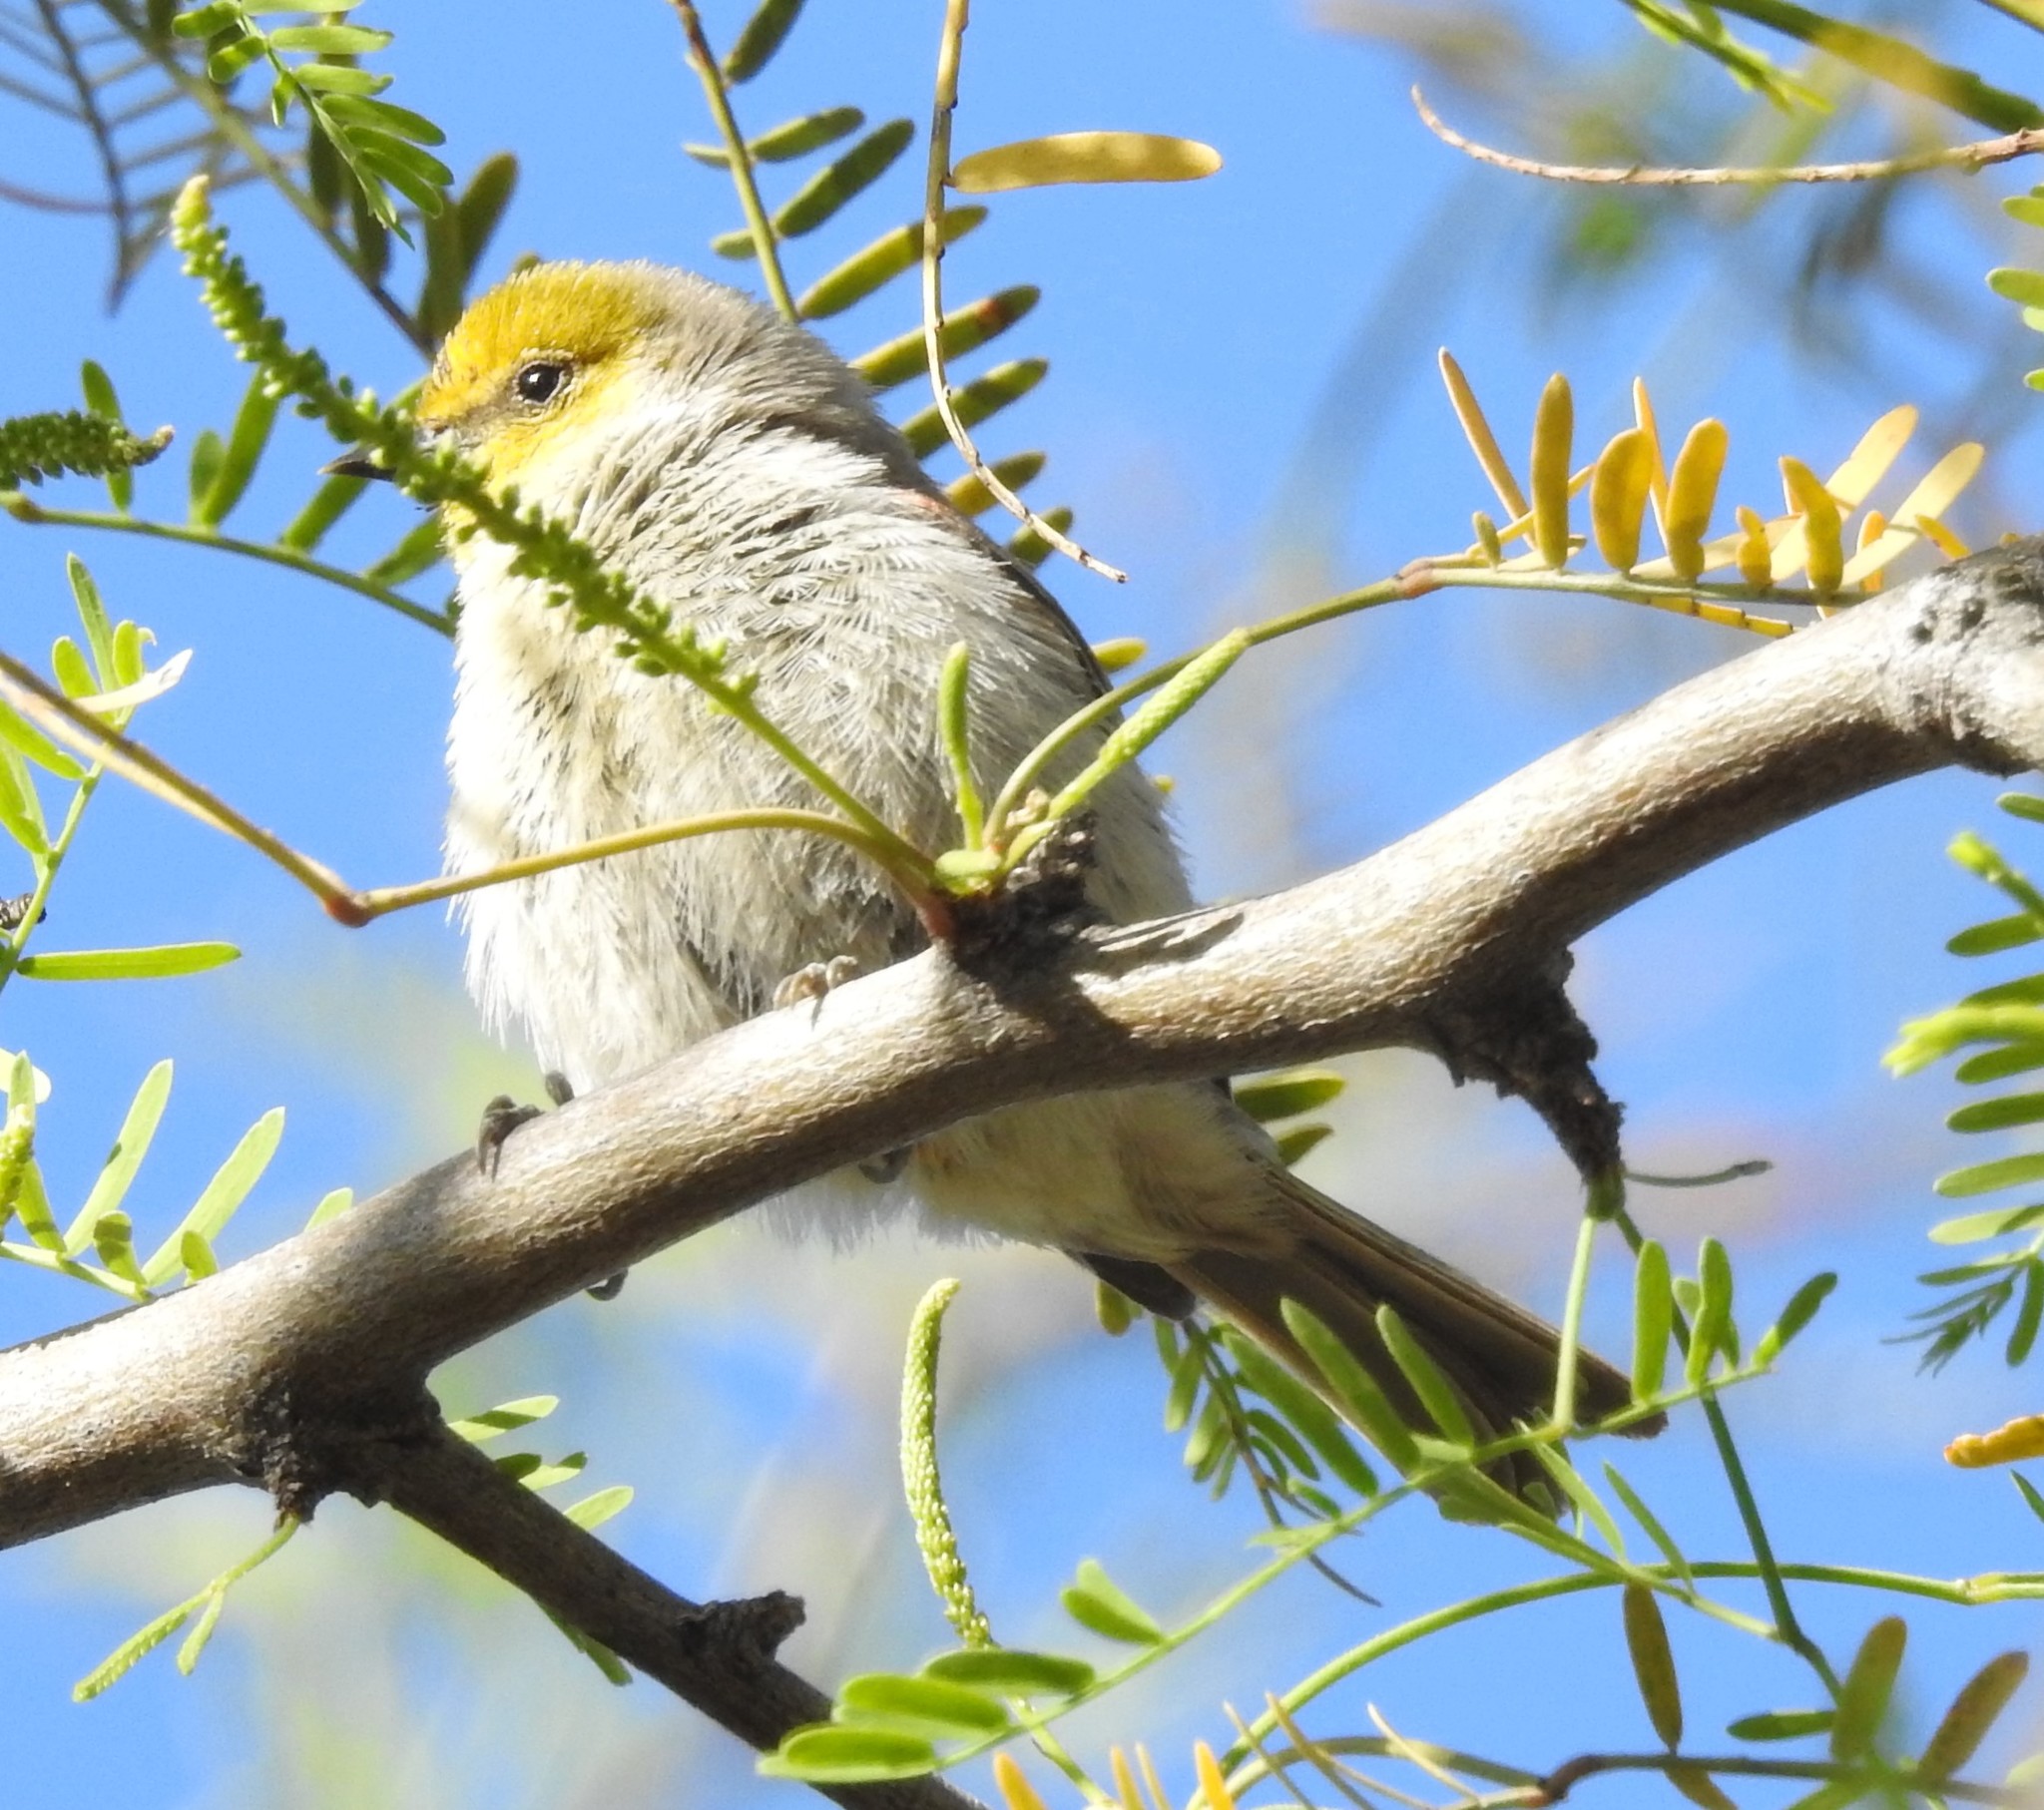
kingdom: Animalia
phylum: Chordata
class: Aves
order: Passeriformes
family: Remizidae
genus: Auriparus
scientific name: Auriparus flaviceps
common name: Verdin
